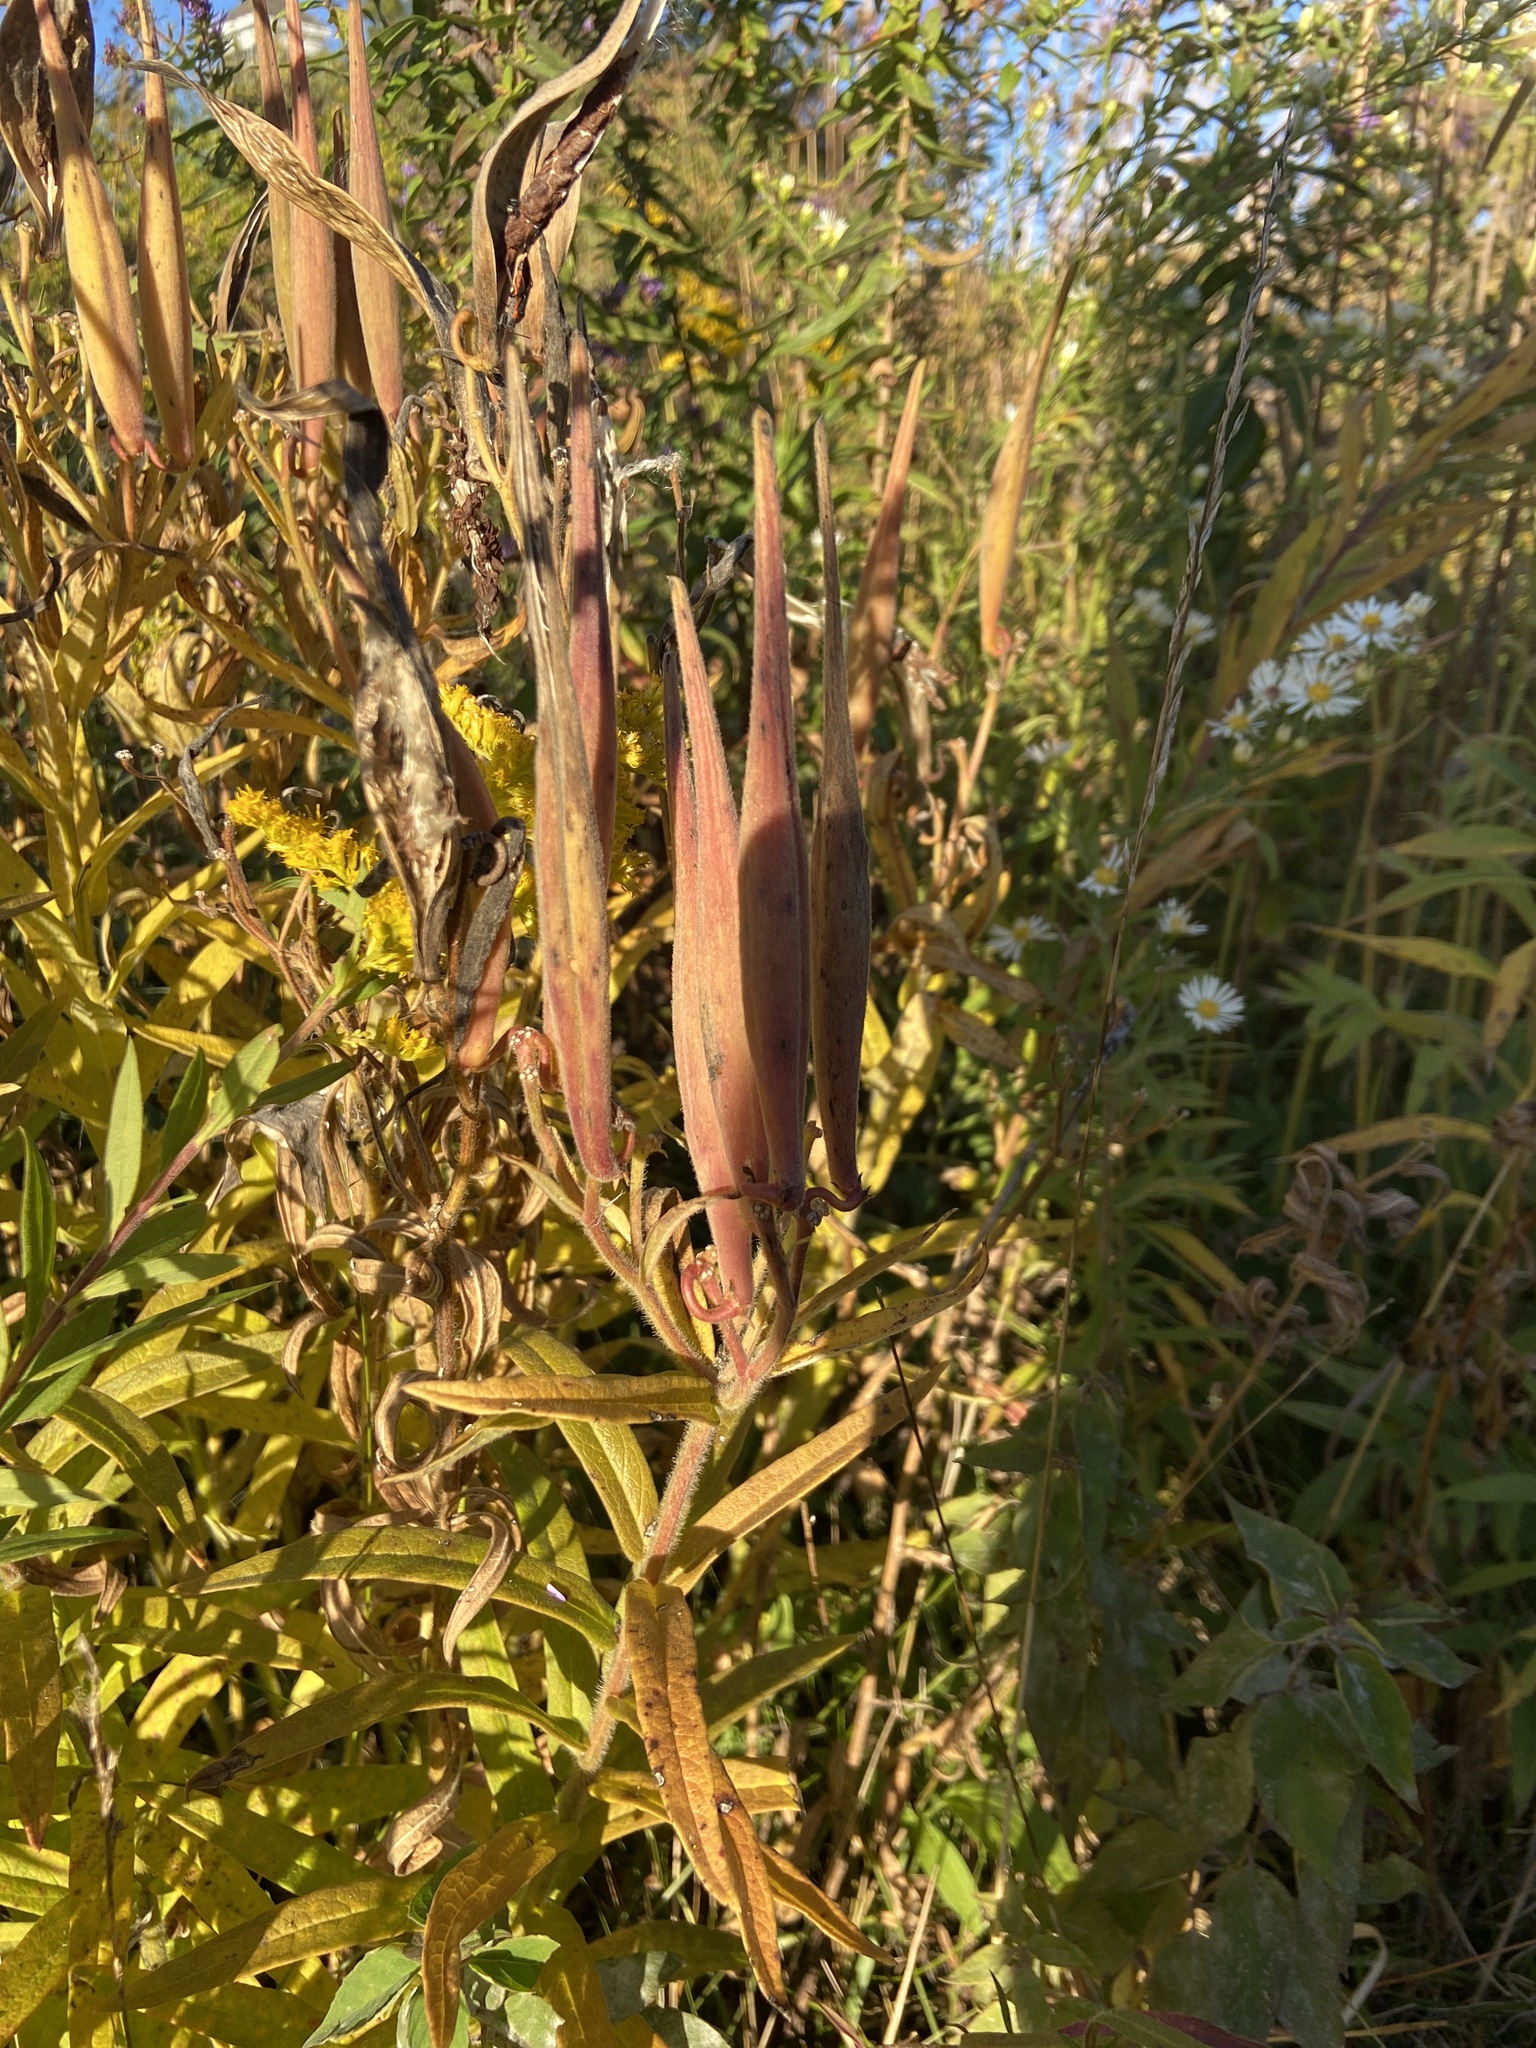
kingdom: Plantae
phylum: Tracheophyta
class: Magnoliopsida
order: Gentianales
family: Apocynaceae
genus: Asclepias
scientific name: Asclepias tuberosa
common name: Butterfly milkweed
